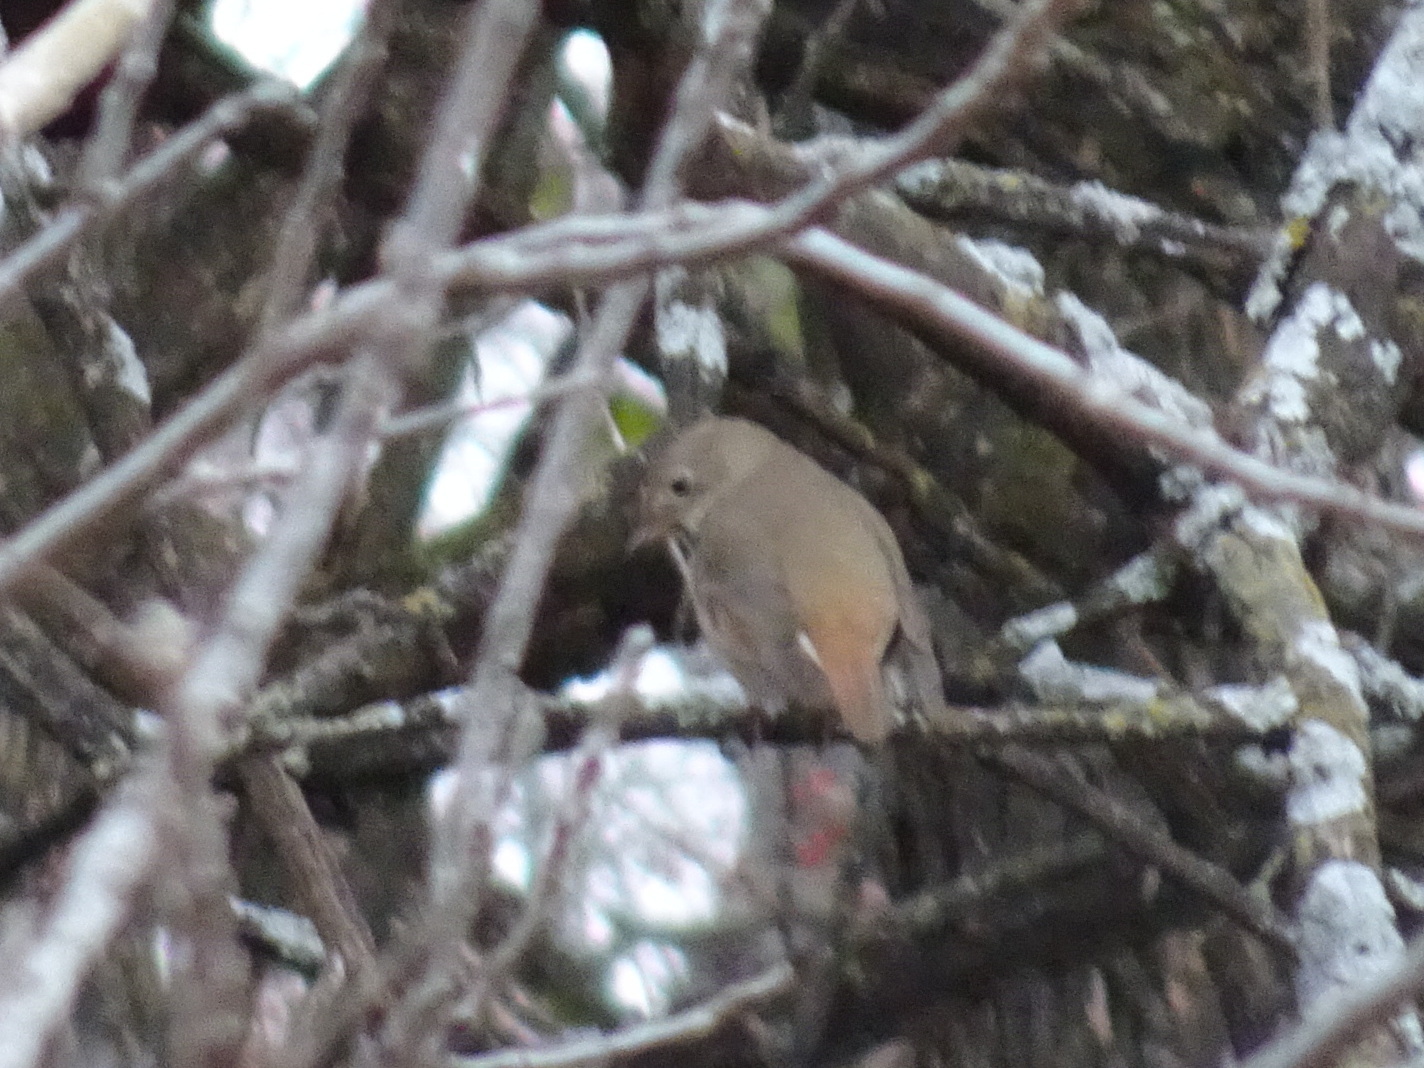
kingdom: Animalia
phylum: Chordata
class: Aves
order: Passeriformes
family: Turdidae
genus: Catharus
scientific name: Catharus guttatus
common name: Hermit thrush
